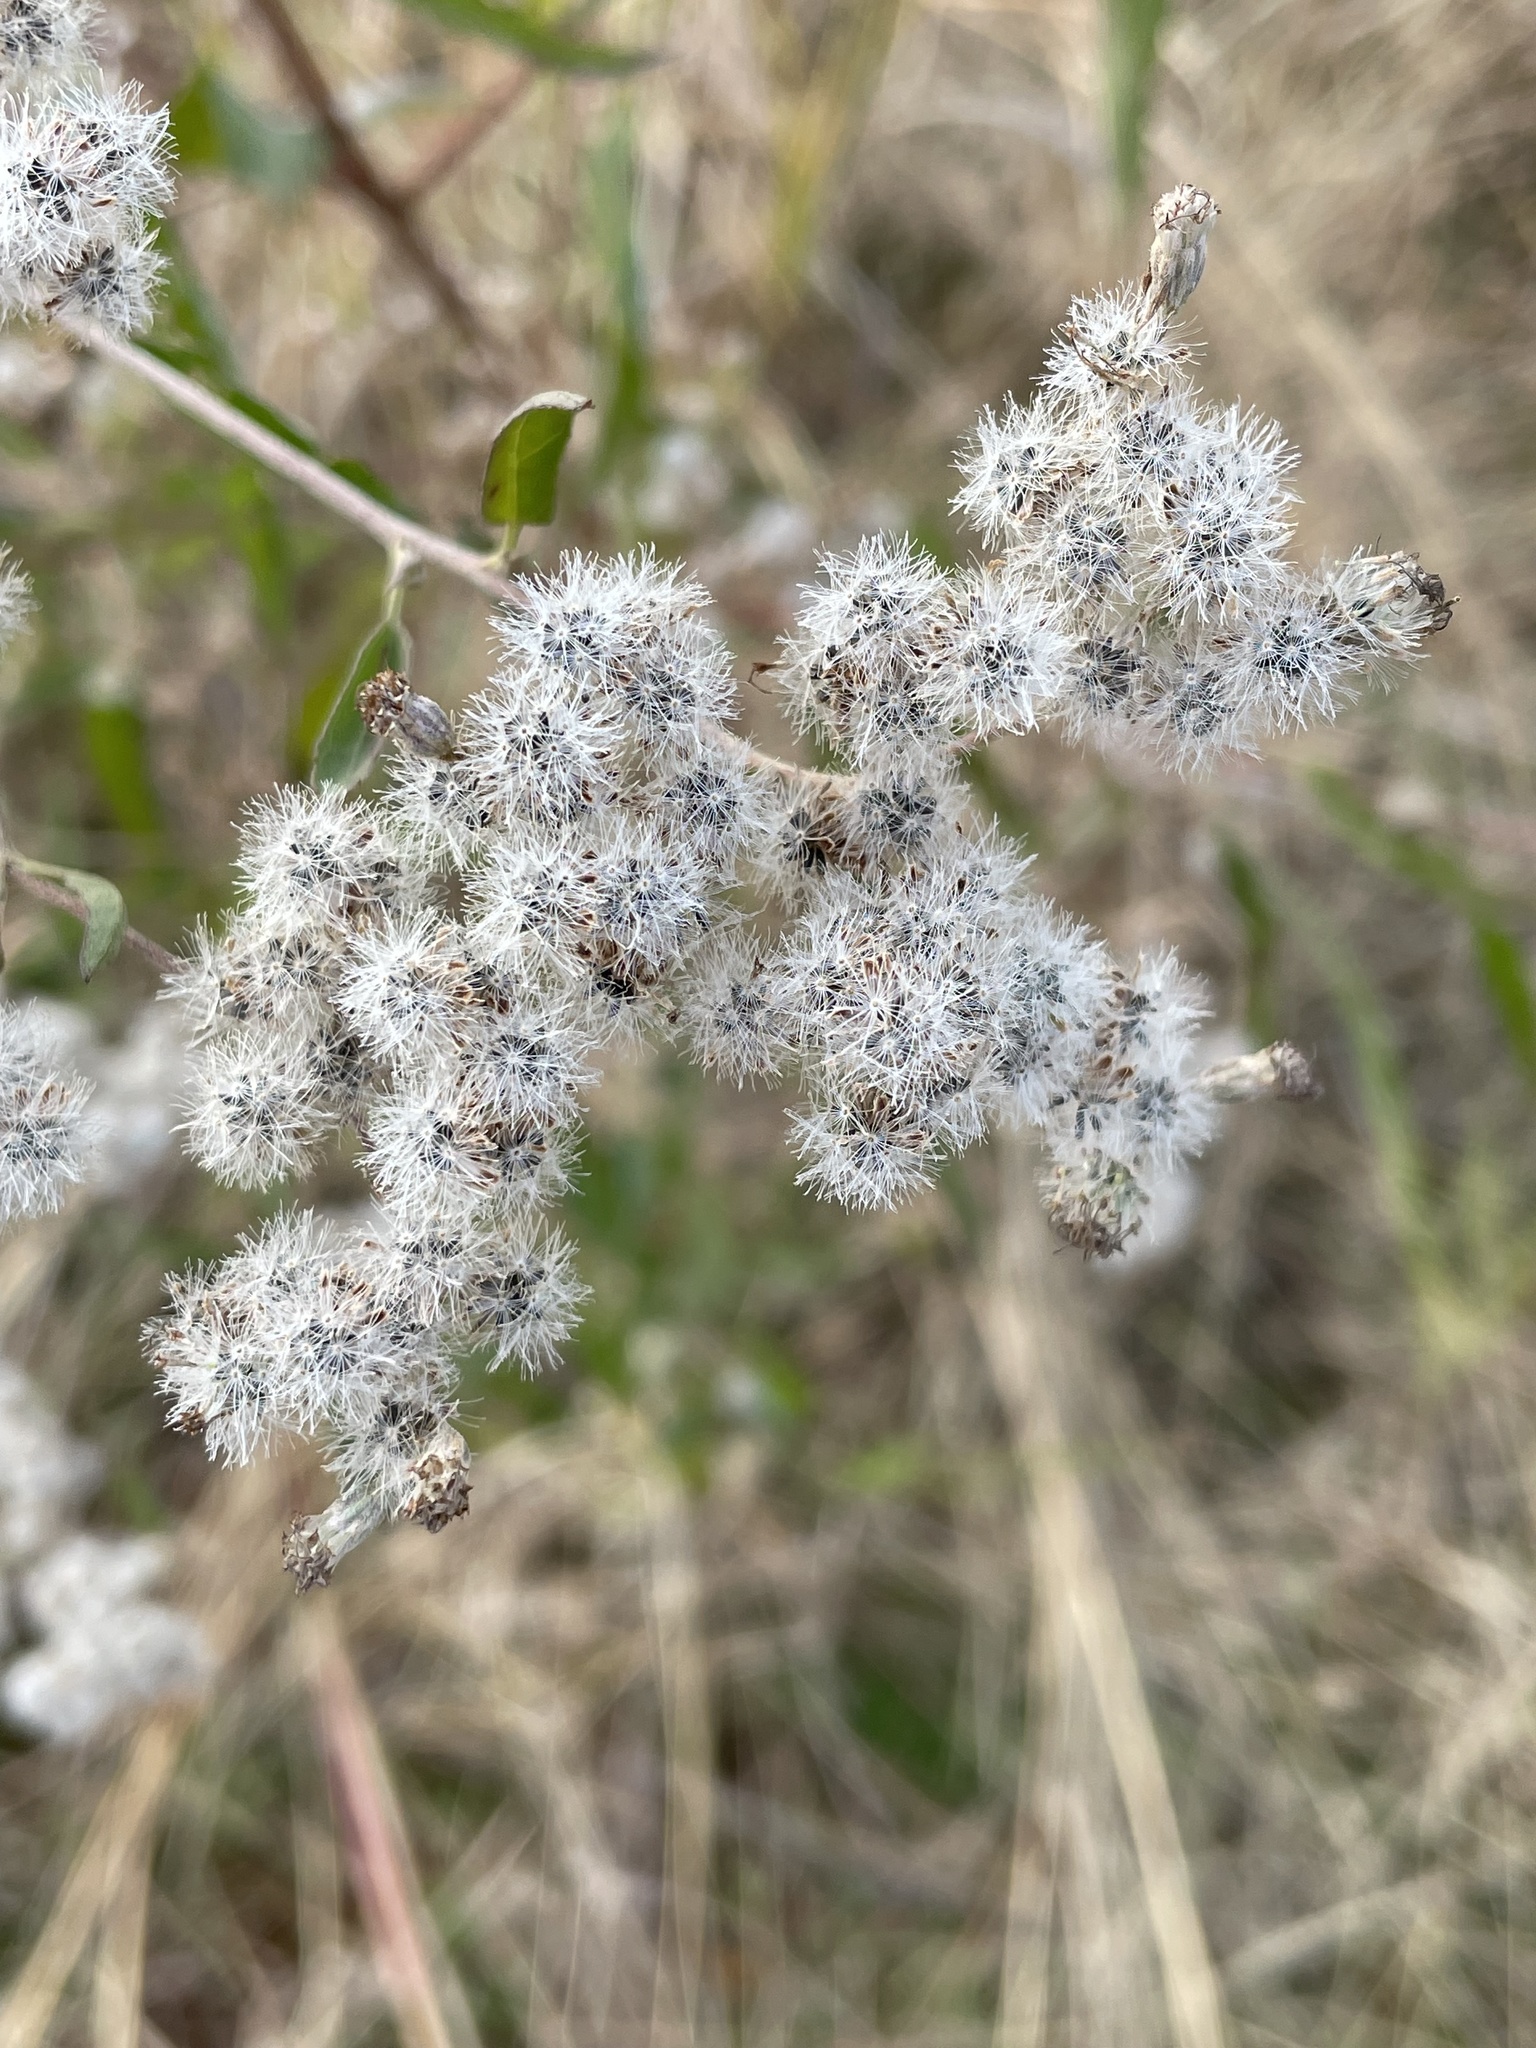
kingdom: Plantae
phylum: Tracheophyta
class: Magnoliopsida
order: Asterales
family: Asteraceae
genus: Eupatorium
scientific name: Eupatorium serotinum
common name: Late boneset
